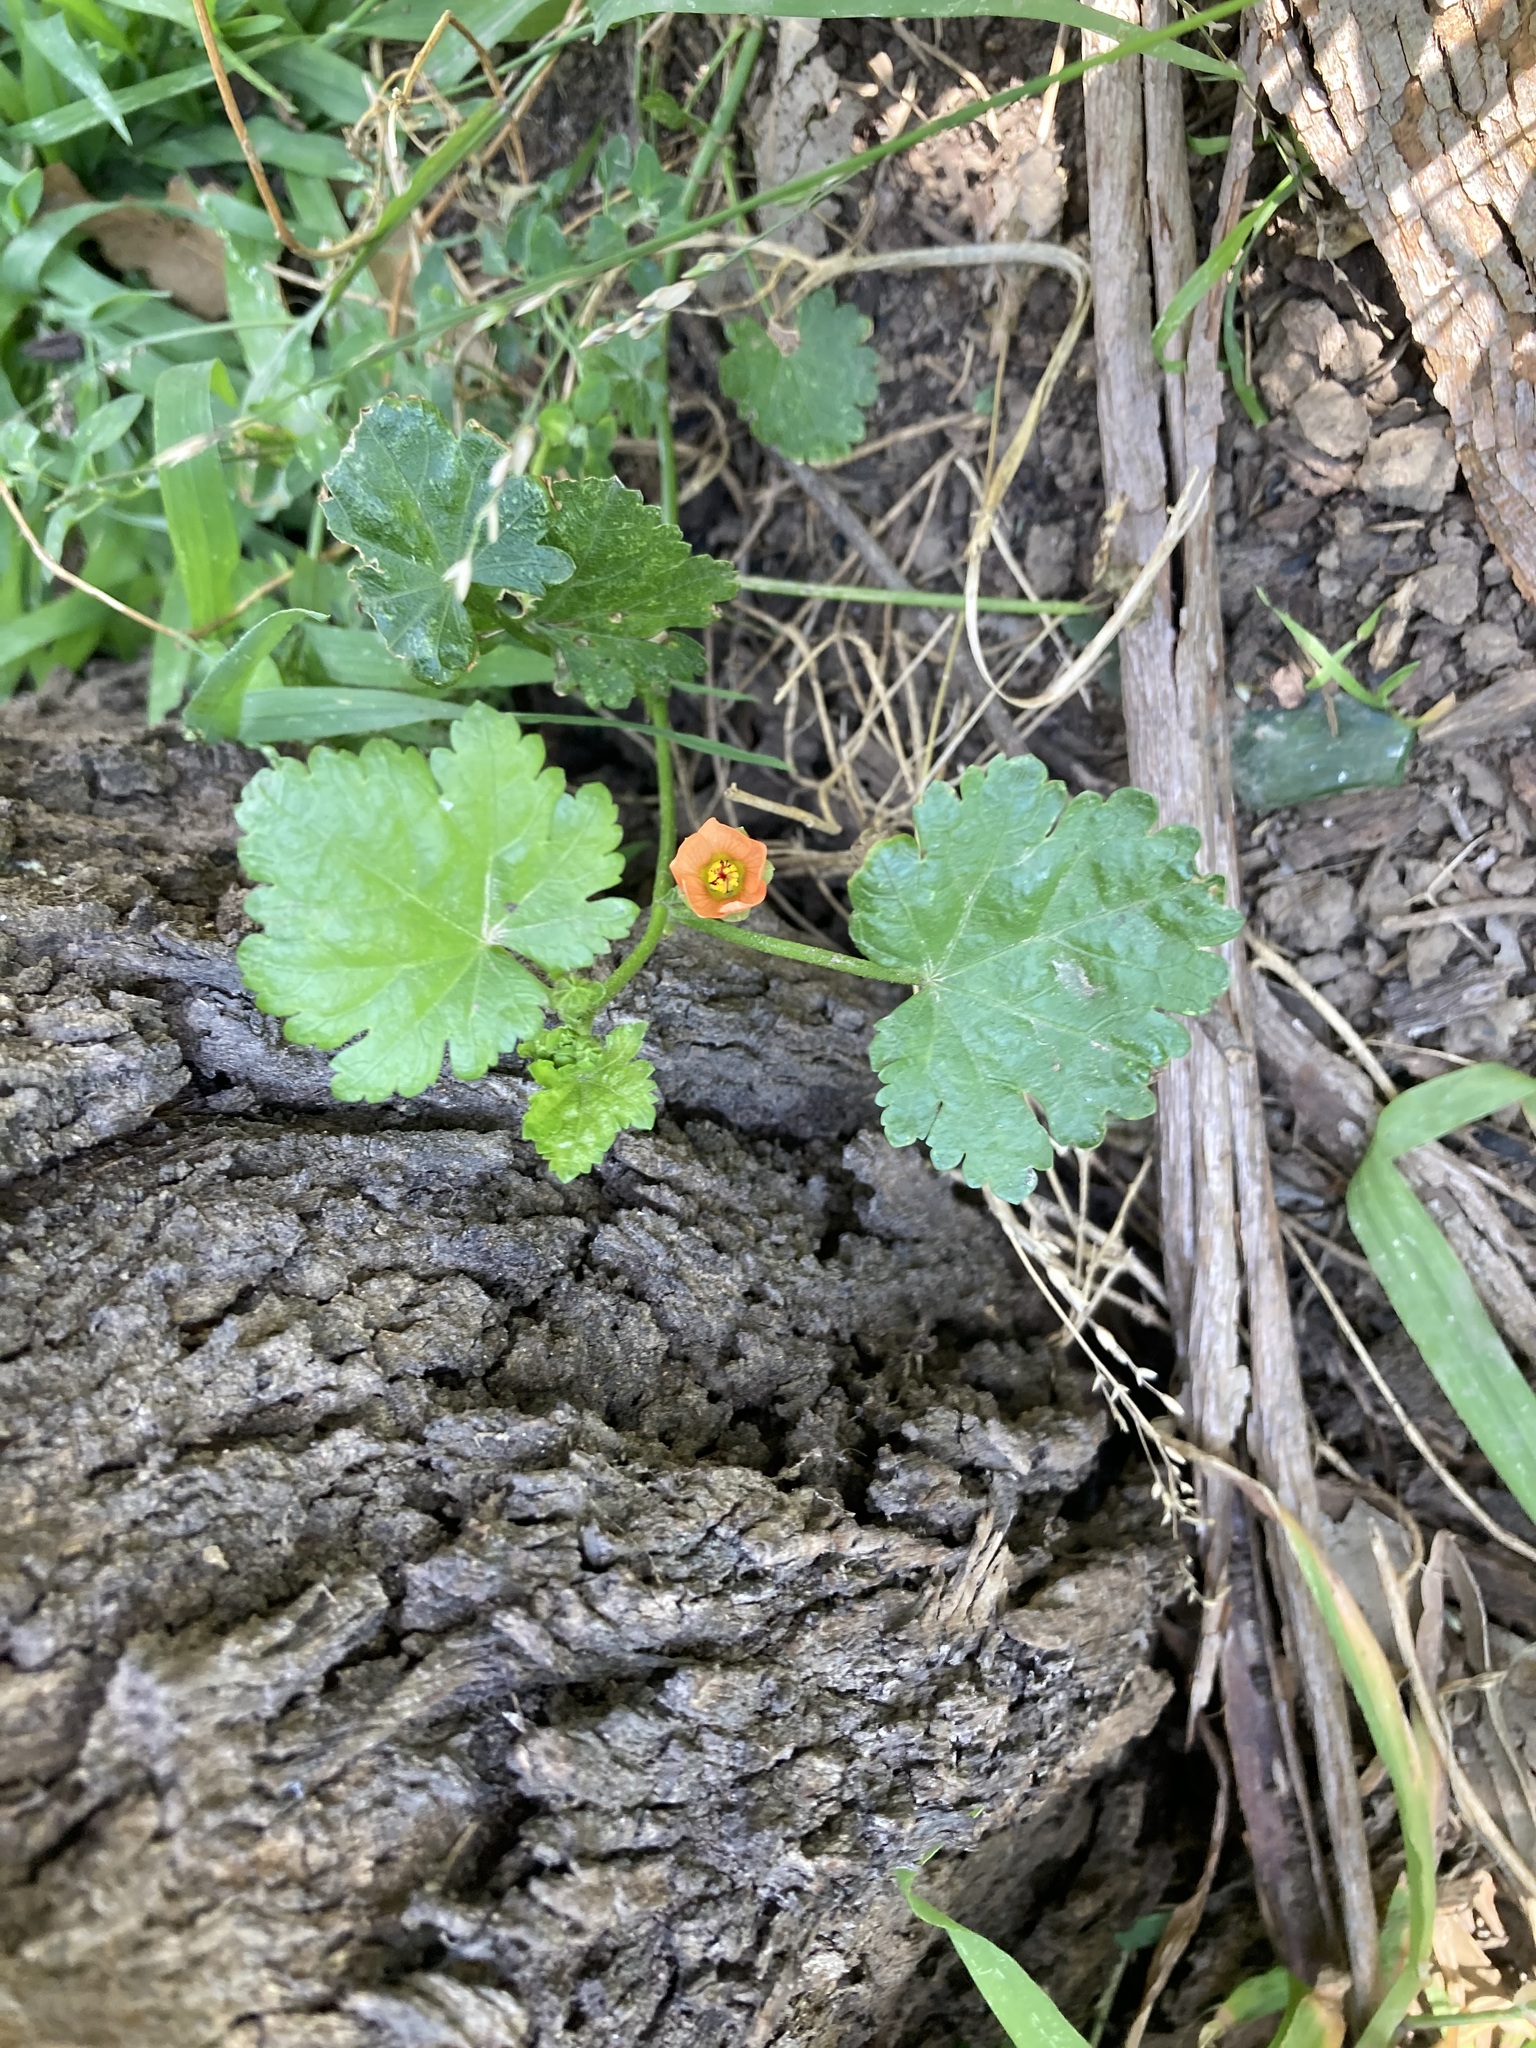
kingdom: Plantae
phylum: Tracheophyta
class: Magnoliopsida
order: Malvales
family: Malvaceae
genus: Modiola
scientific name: Modiola caroliniana
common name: Carolina bristlemallow
